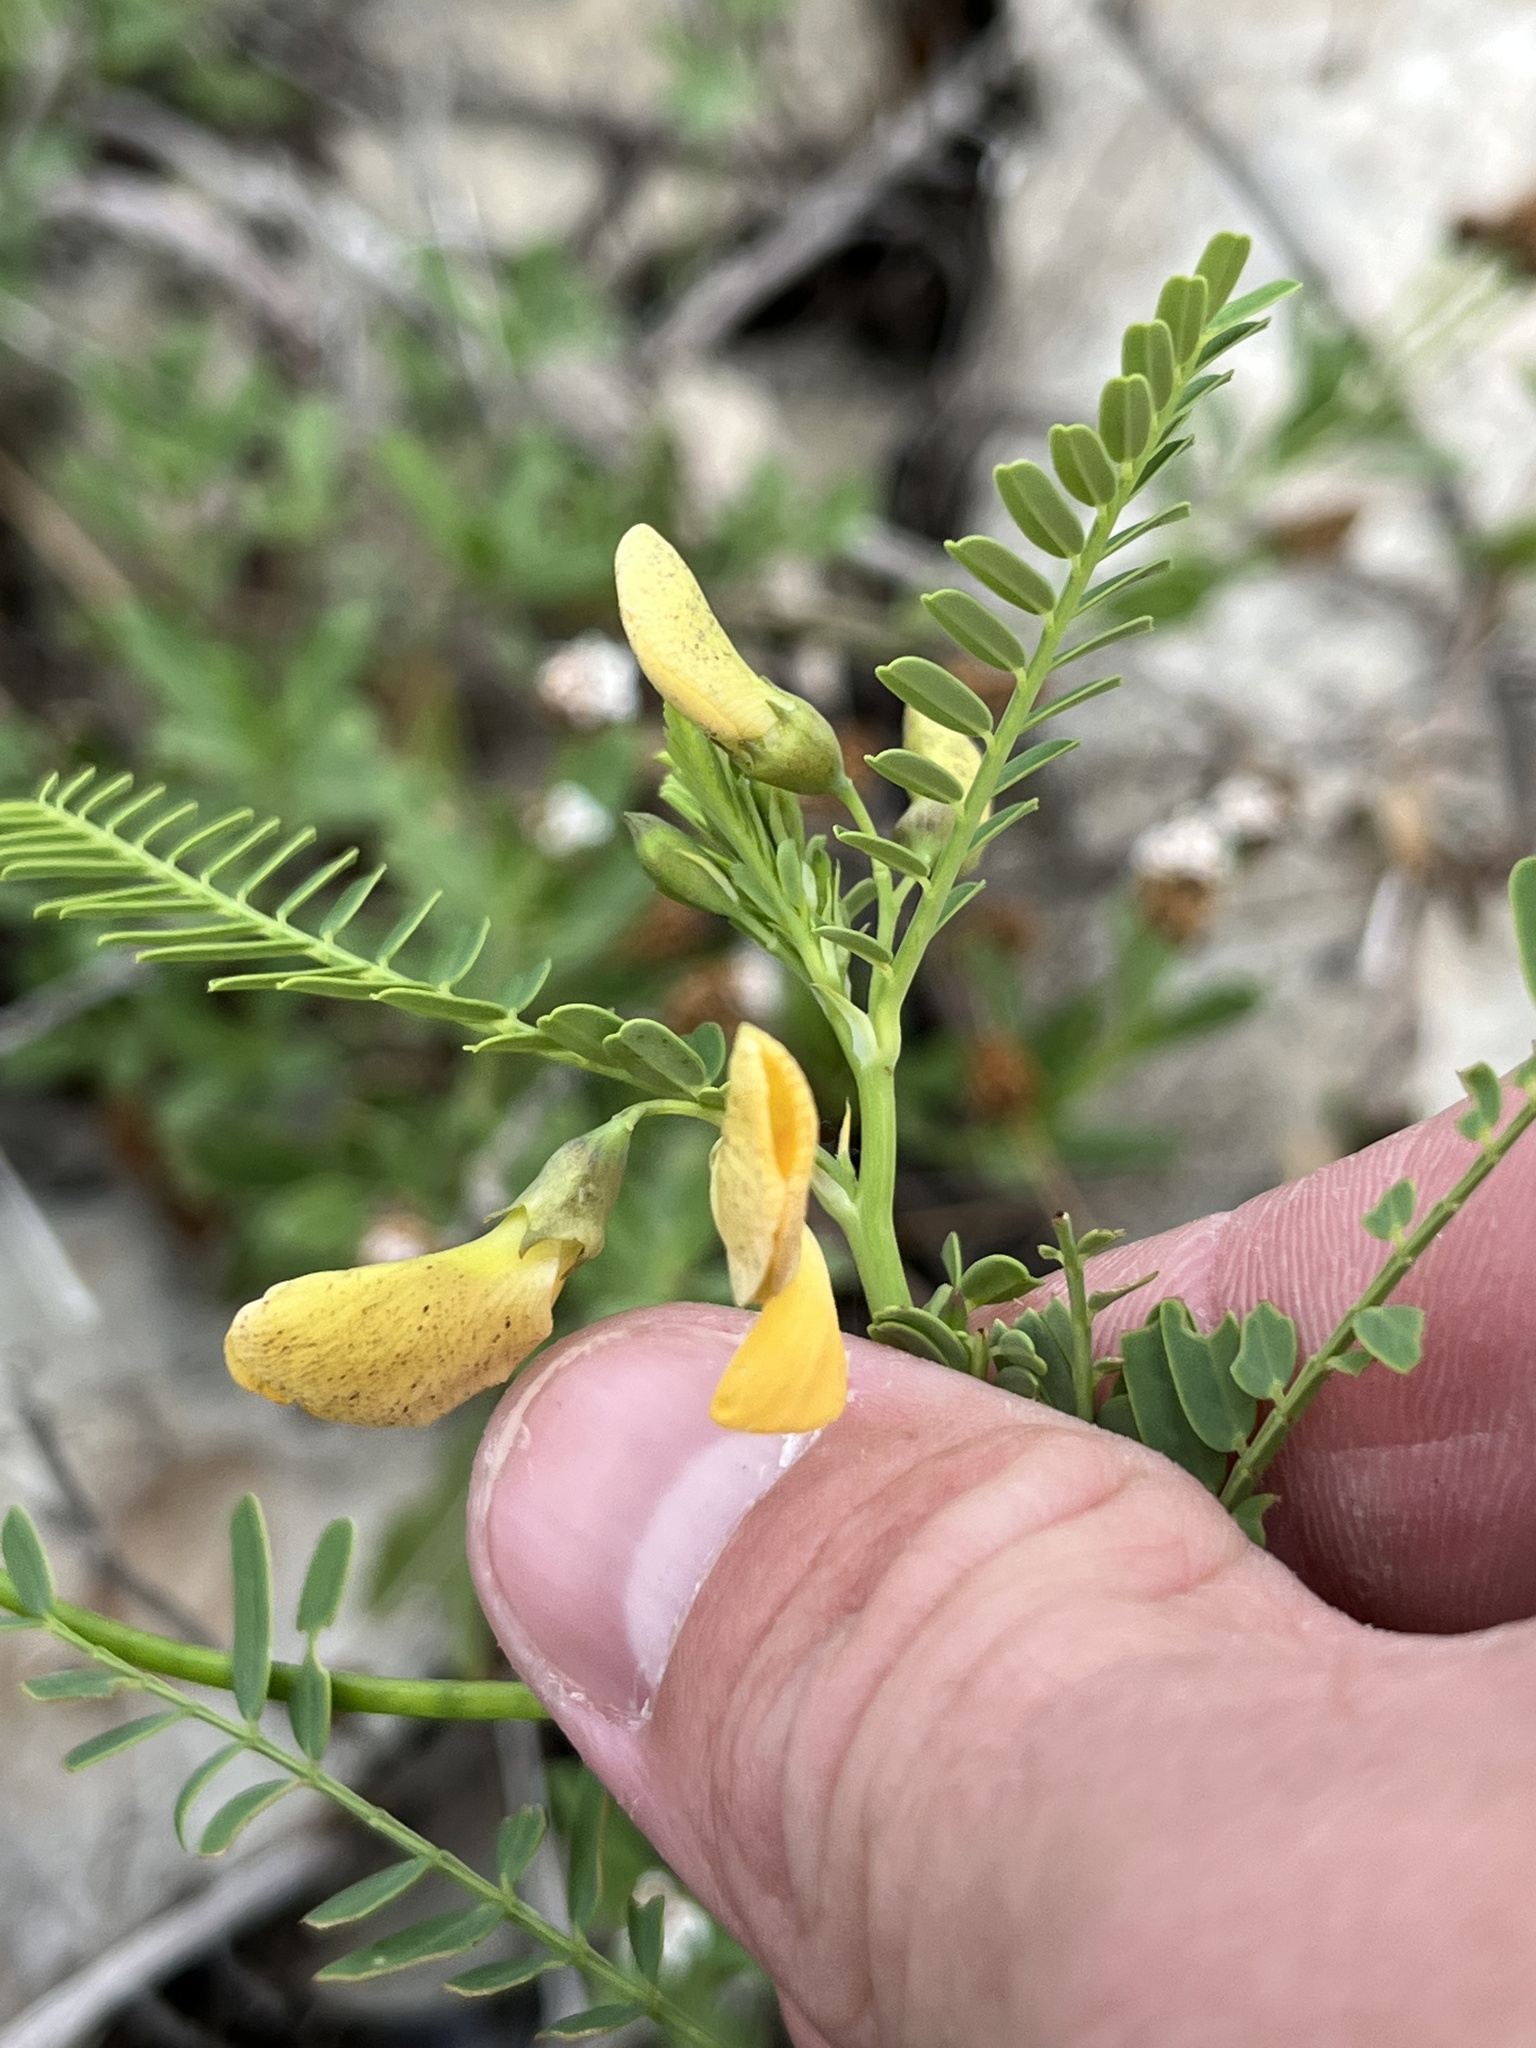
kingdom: Plantae
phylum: Tracheophyta
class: Magnoliopsida
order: Fabales
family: Fabaceae
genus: Sesbania
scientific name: Sesbania herbacea
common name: Bigpod sesbania
